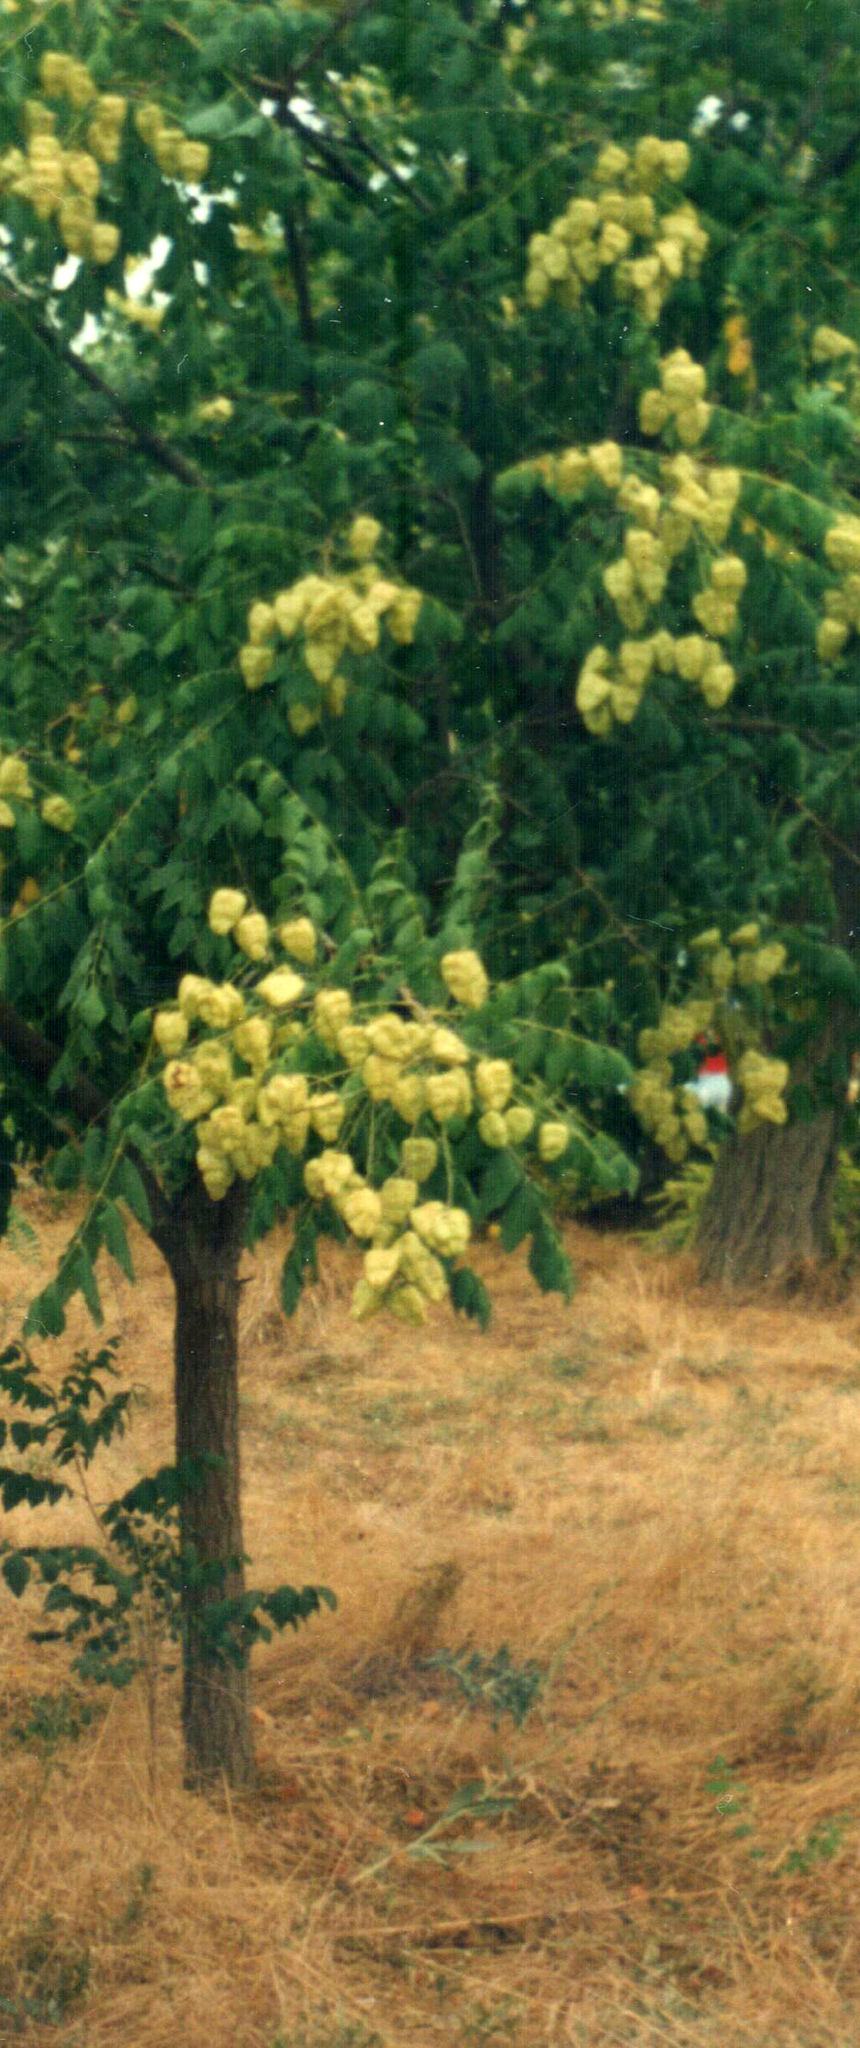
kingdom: Plantae
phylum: Tracheophyta
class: Magnoliopsida
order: Sapindales
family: Sapindaceae
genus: Koelreuteria
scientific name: Koelreuteria paniculata
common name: Pride-of-india
